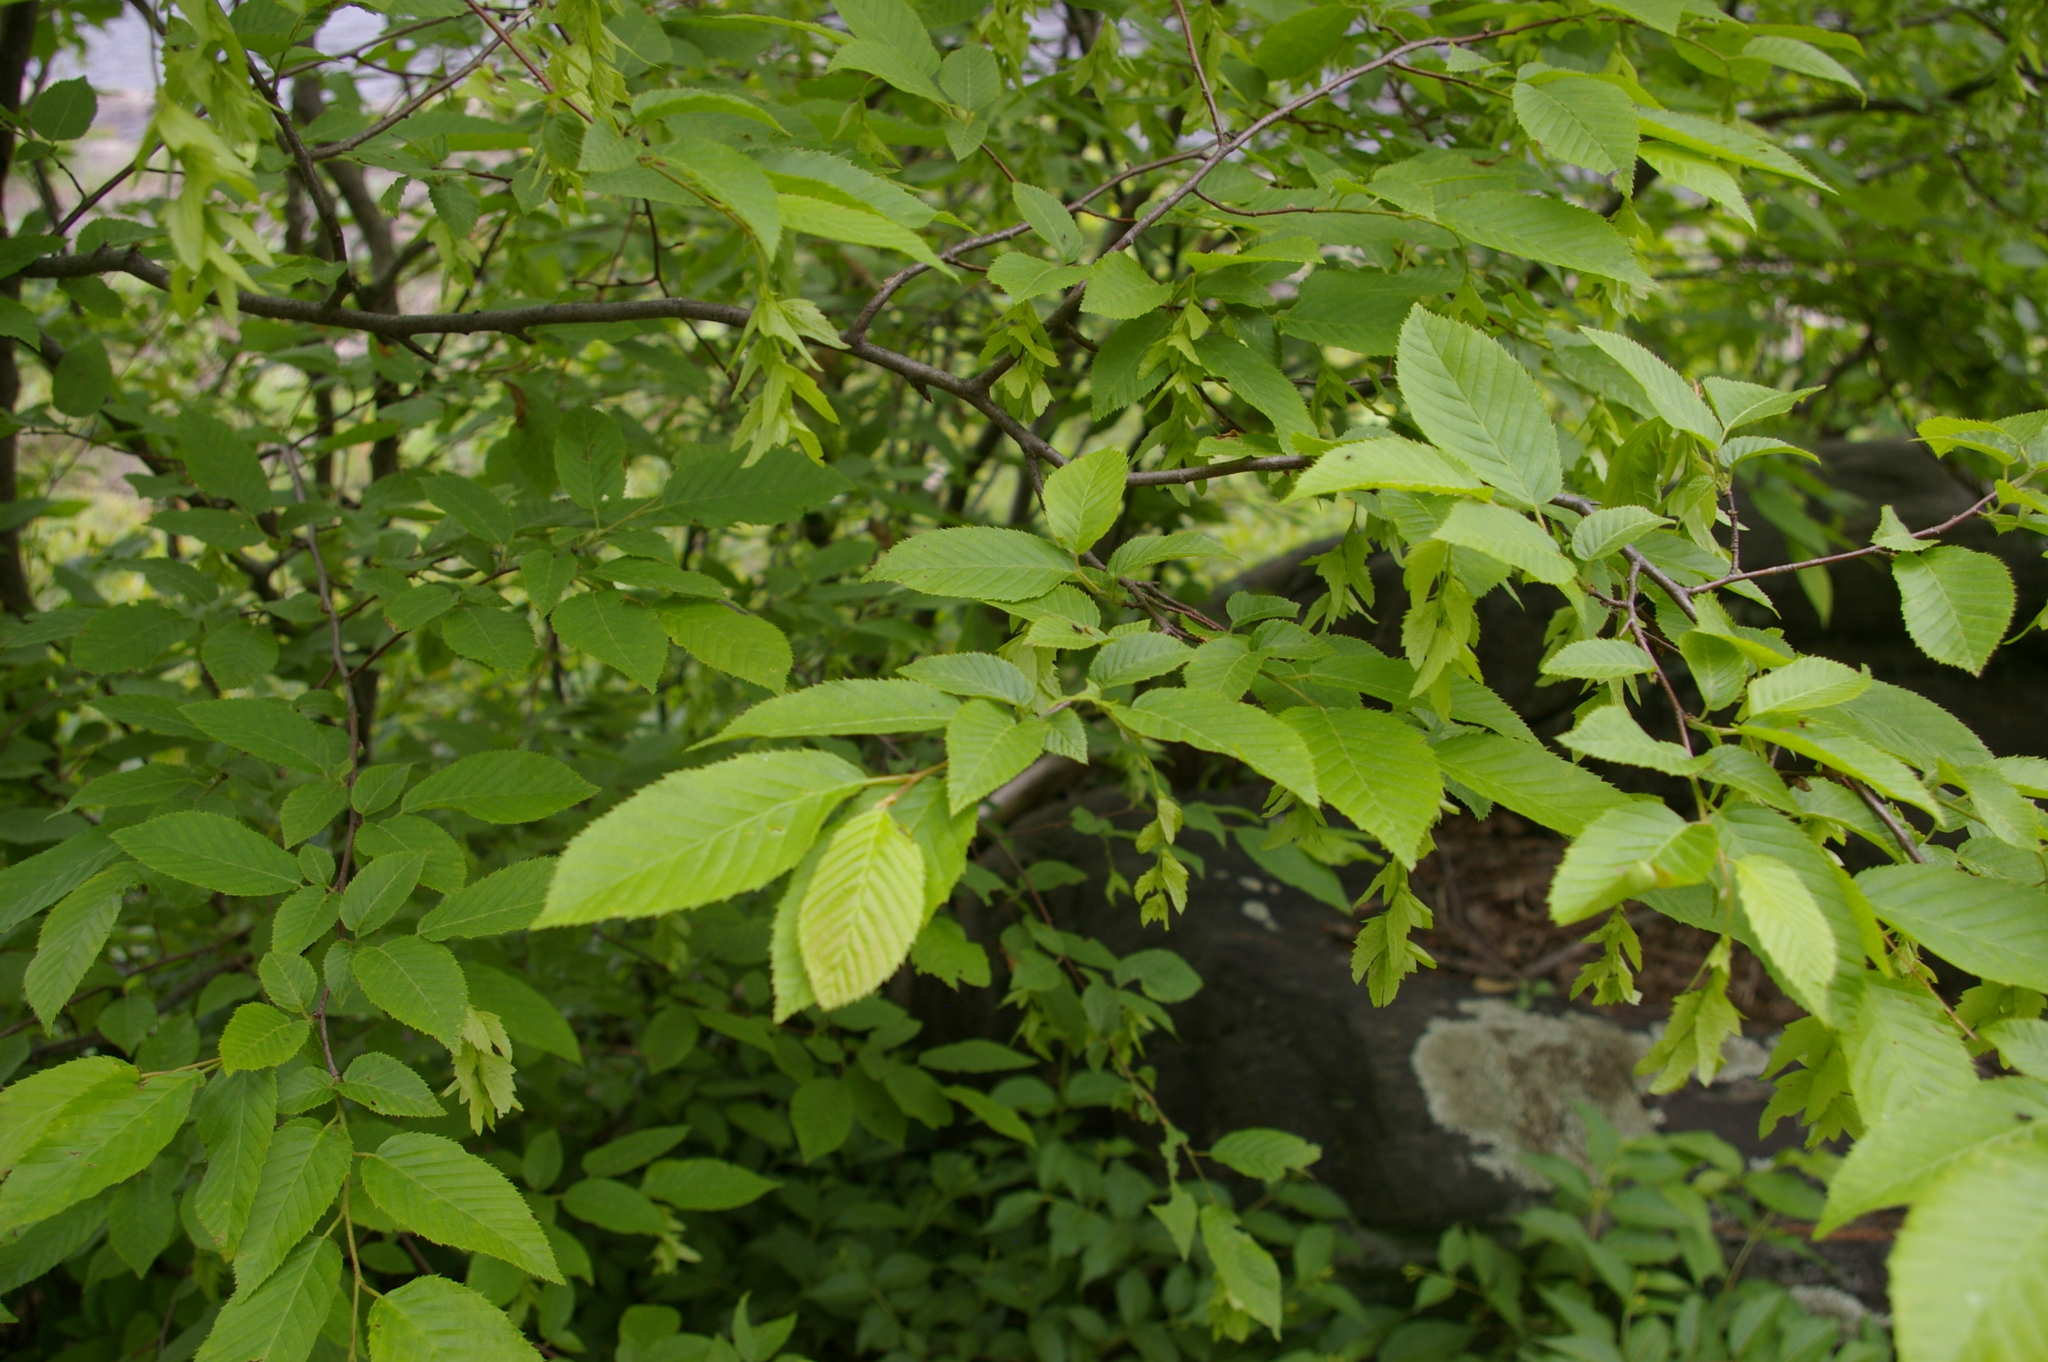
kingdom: Plantae
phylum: Tracheophyta
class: Magnoliopsida
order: Fagales
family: Betulaceae
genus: Carpinus
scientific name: Carpinus caroliniana
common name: American hornbeam
